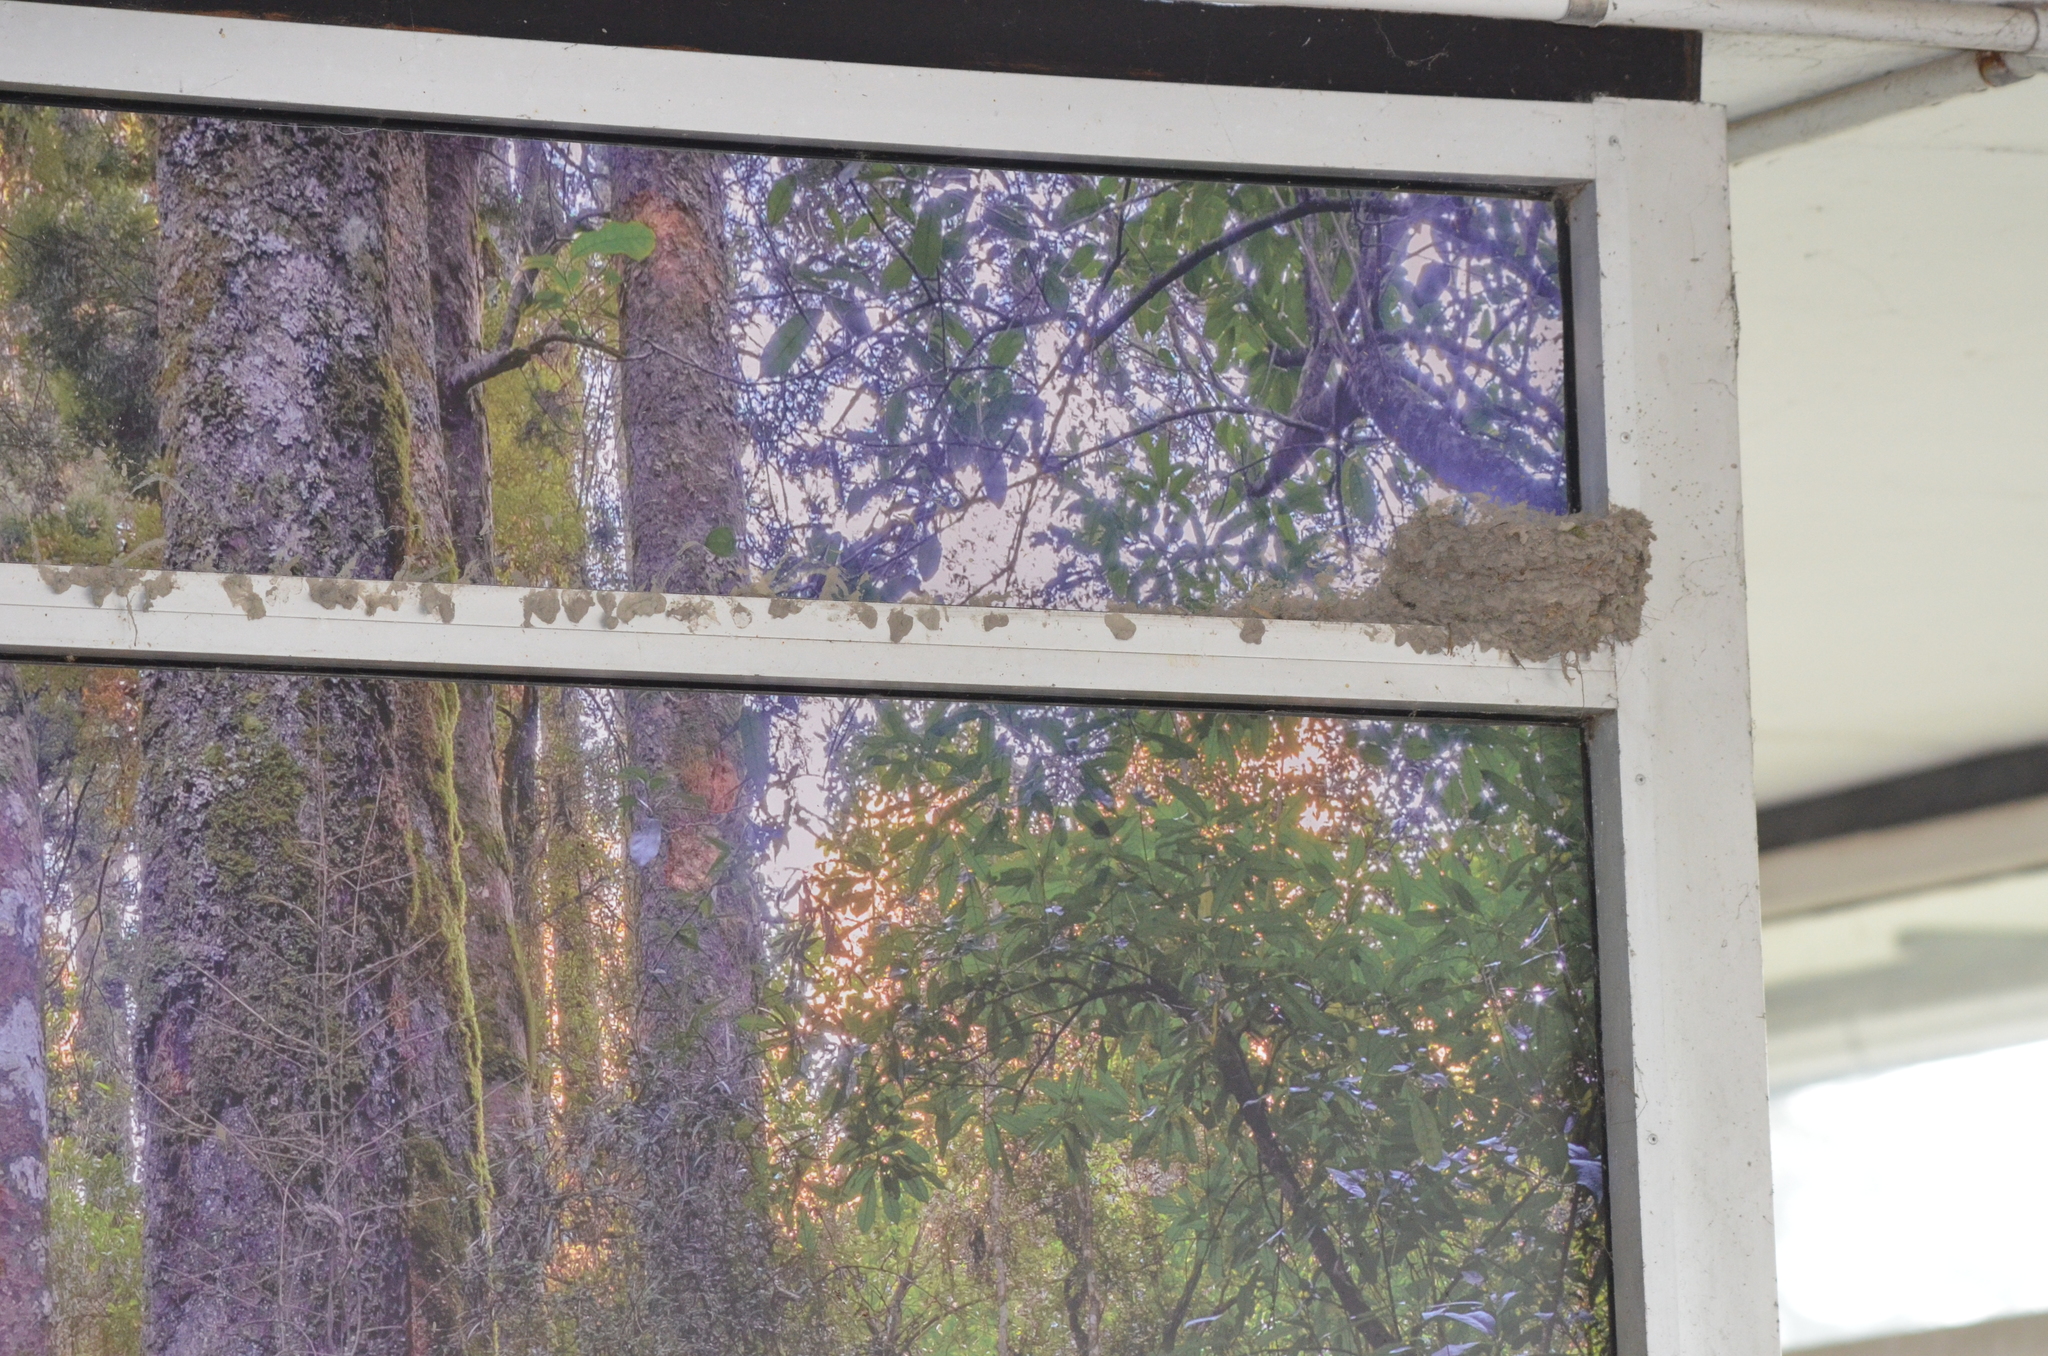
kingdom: Animalia
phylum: Chordata
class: Aves
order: Passeriformes
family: Hirundinidae
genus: Hirundo
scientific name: Hirundo neoxena
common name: Welcome swallow
